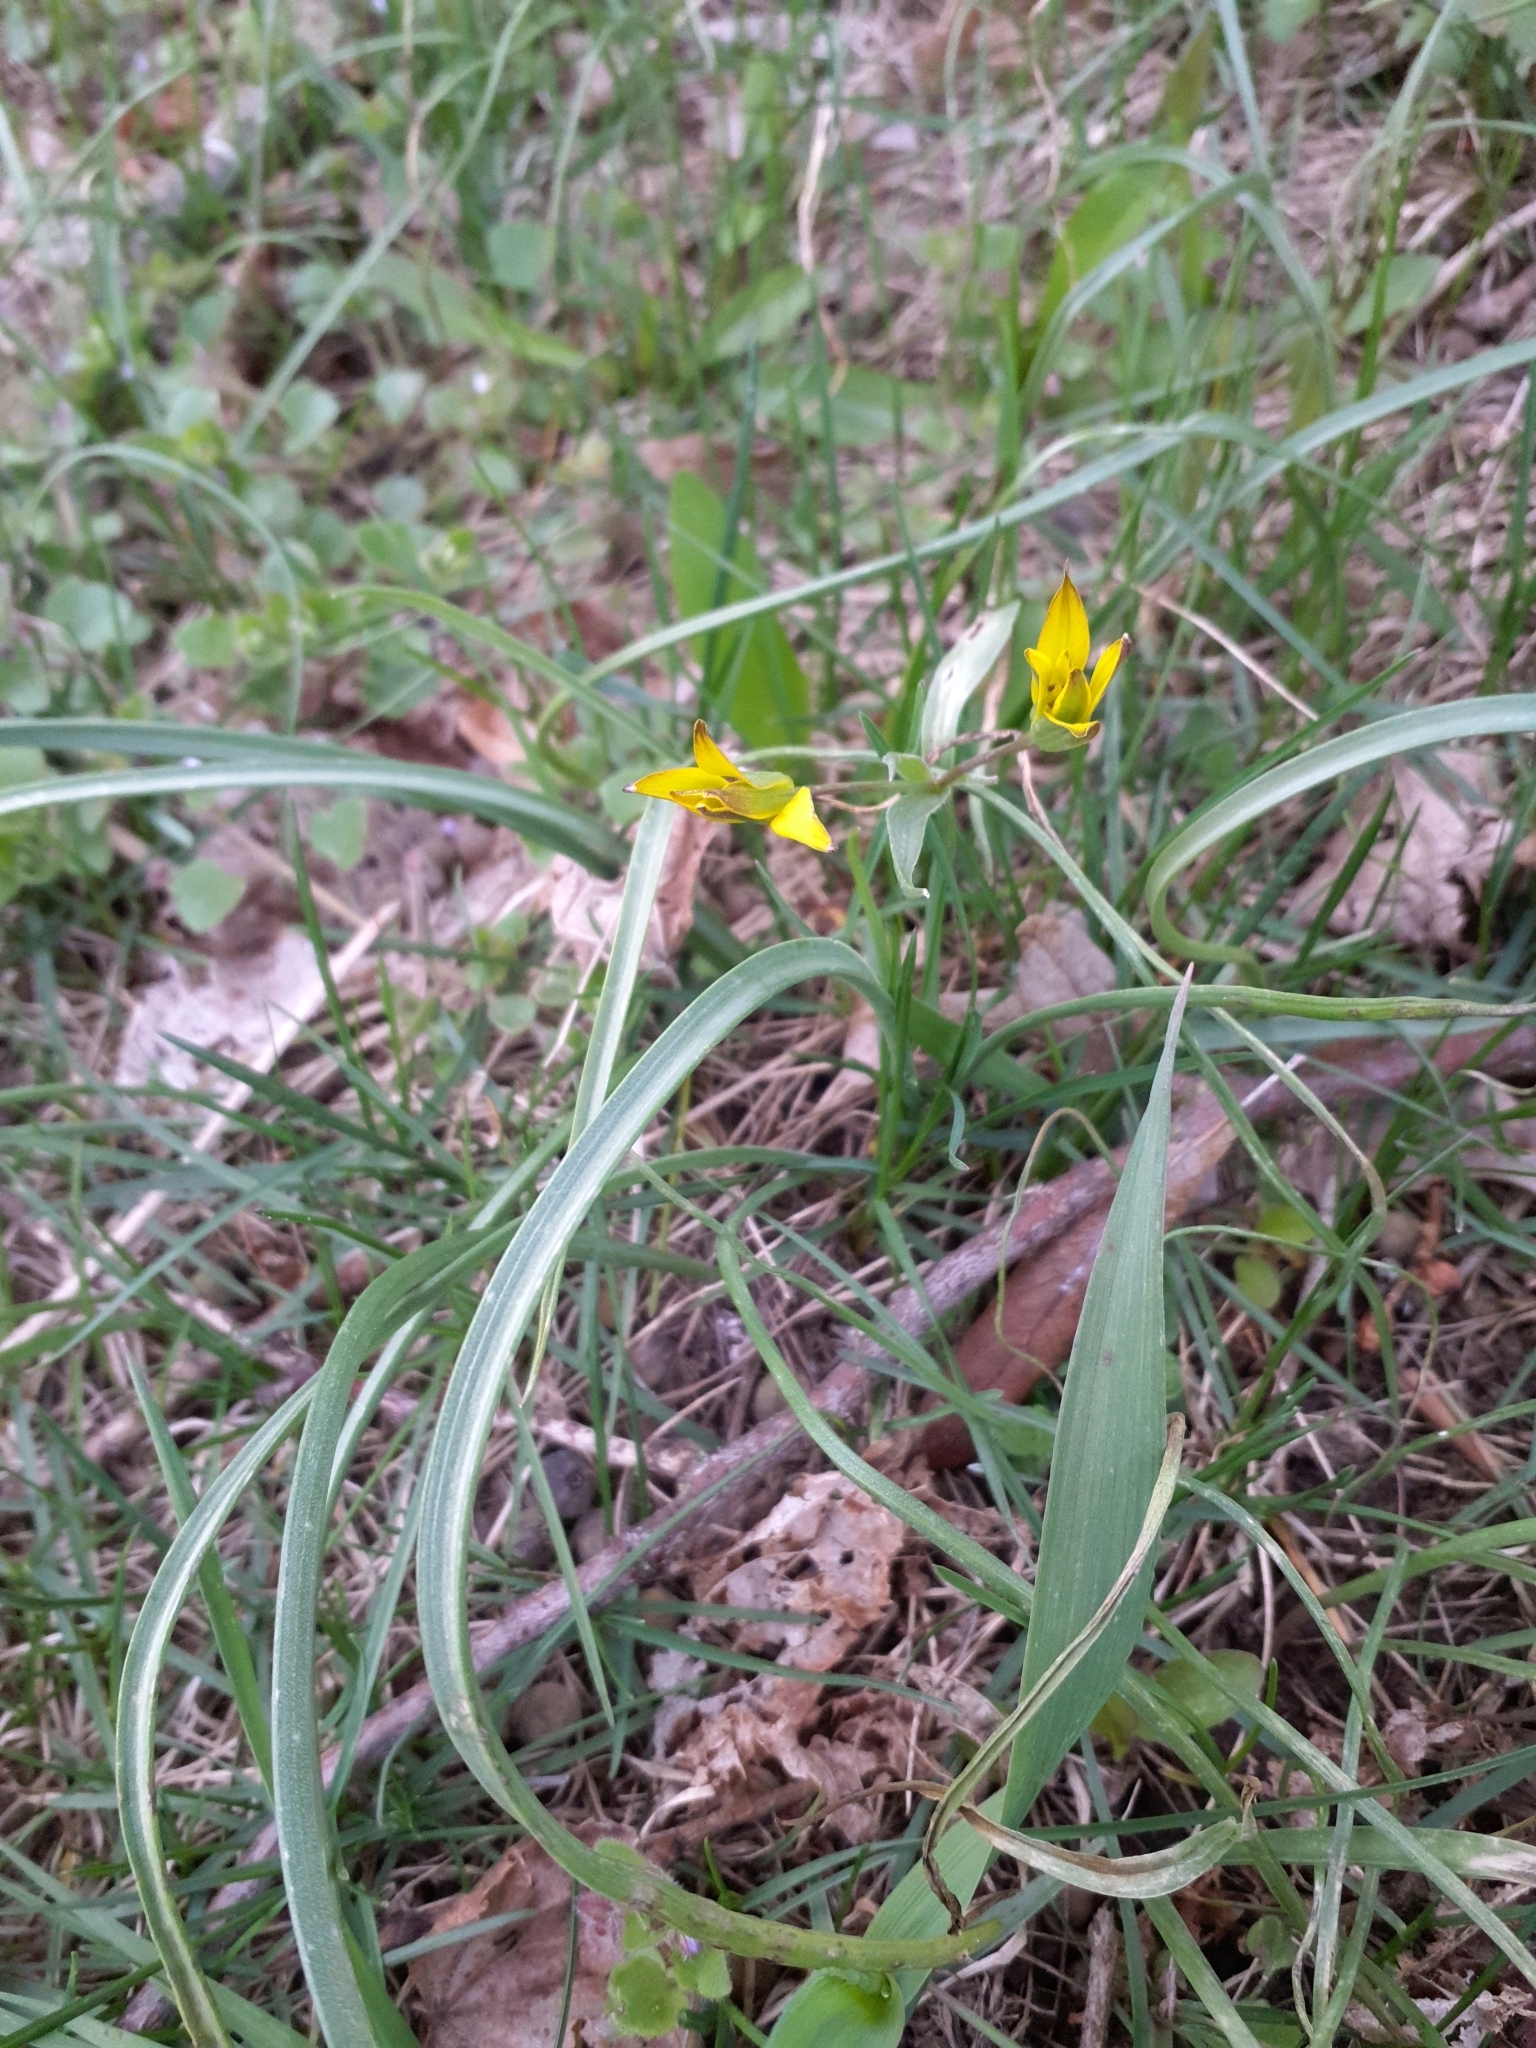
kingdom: Plantae
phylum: Tracheophyta
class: Liliopsida
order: Liliales
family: Liliaceae
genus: Gagea
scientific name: Gagea pratensis
